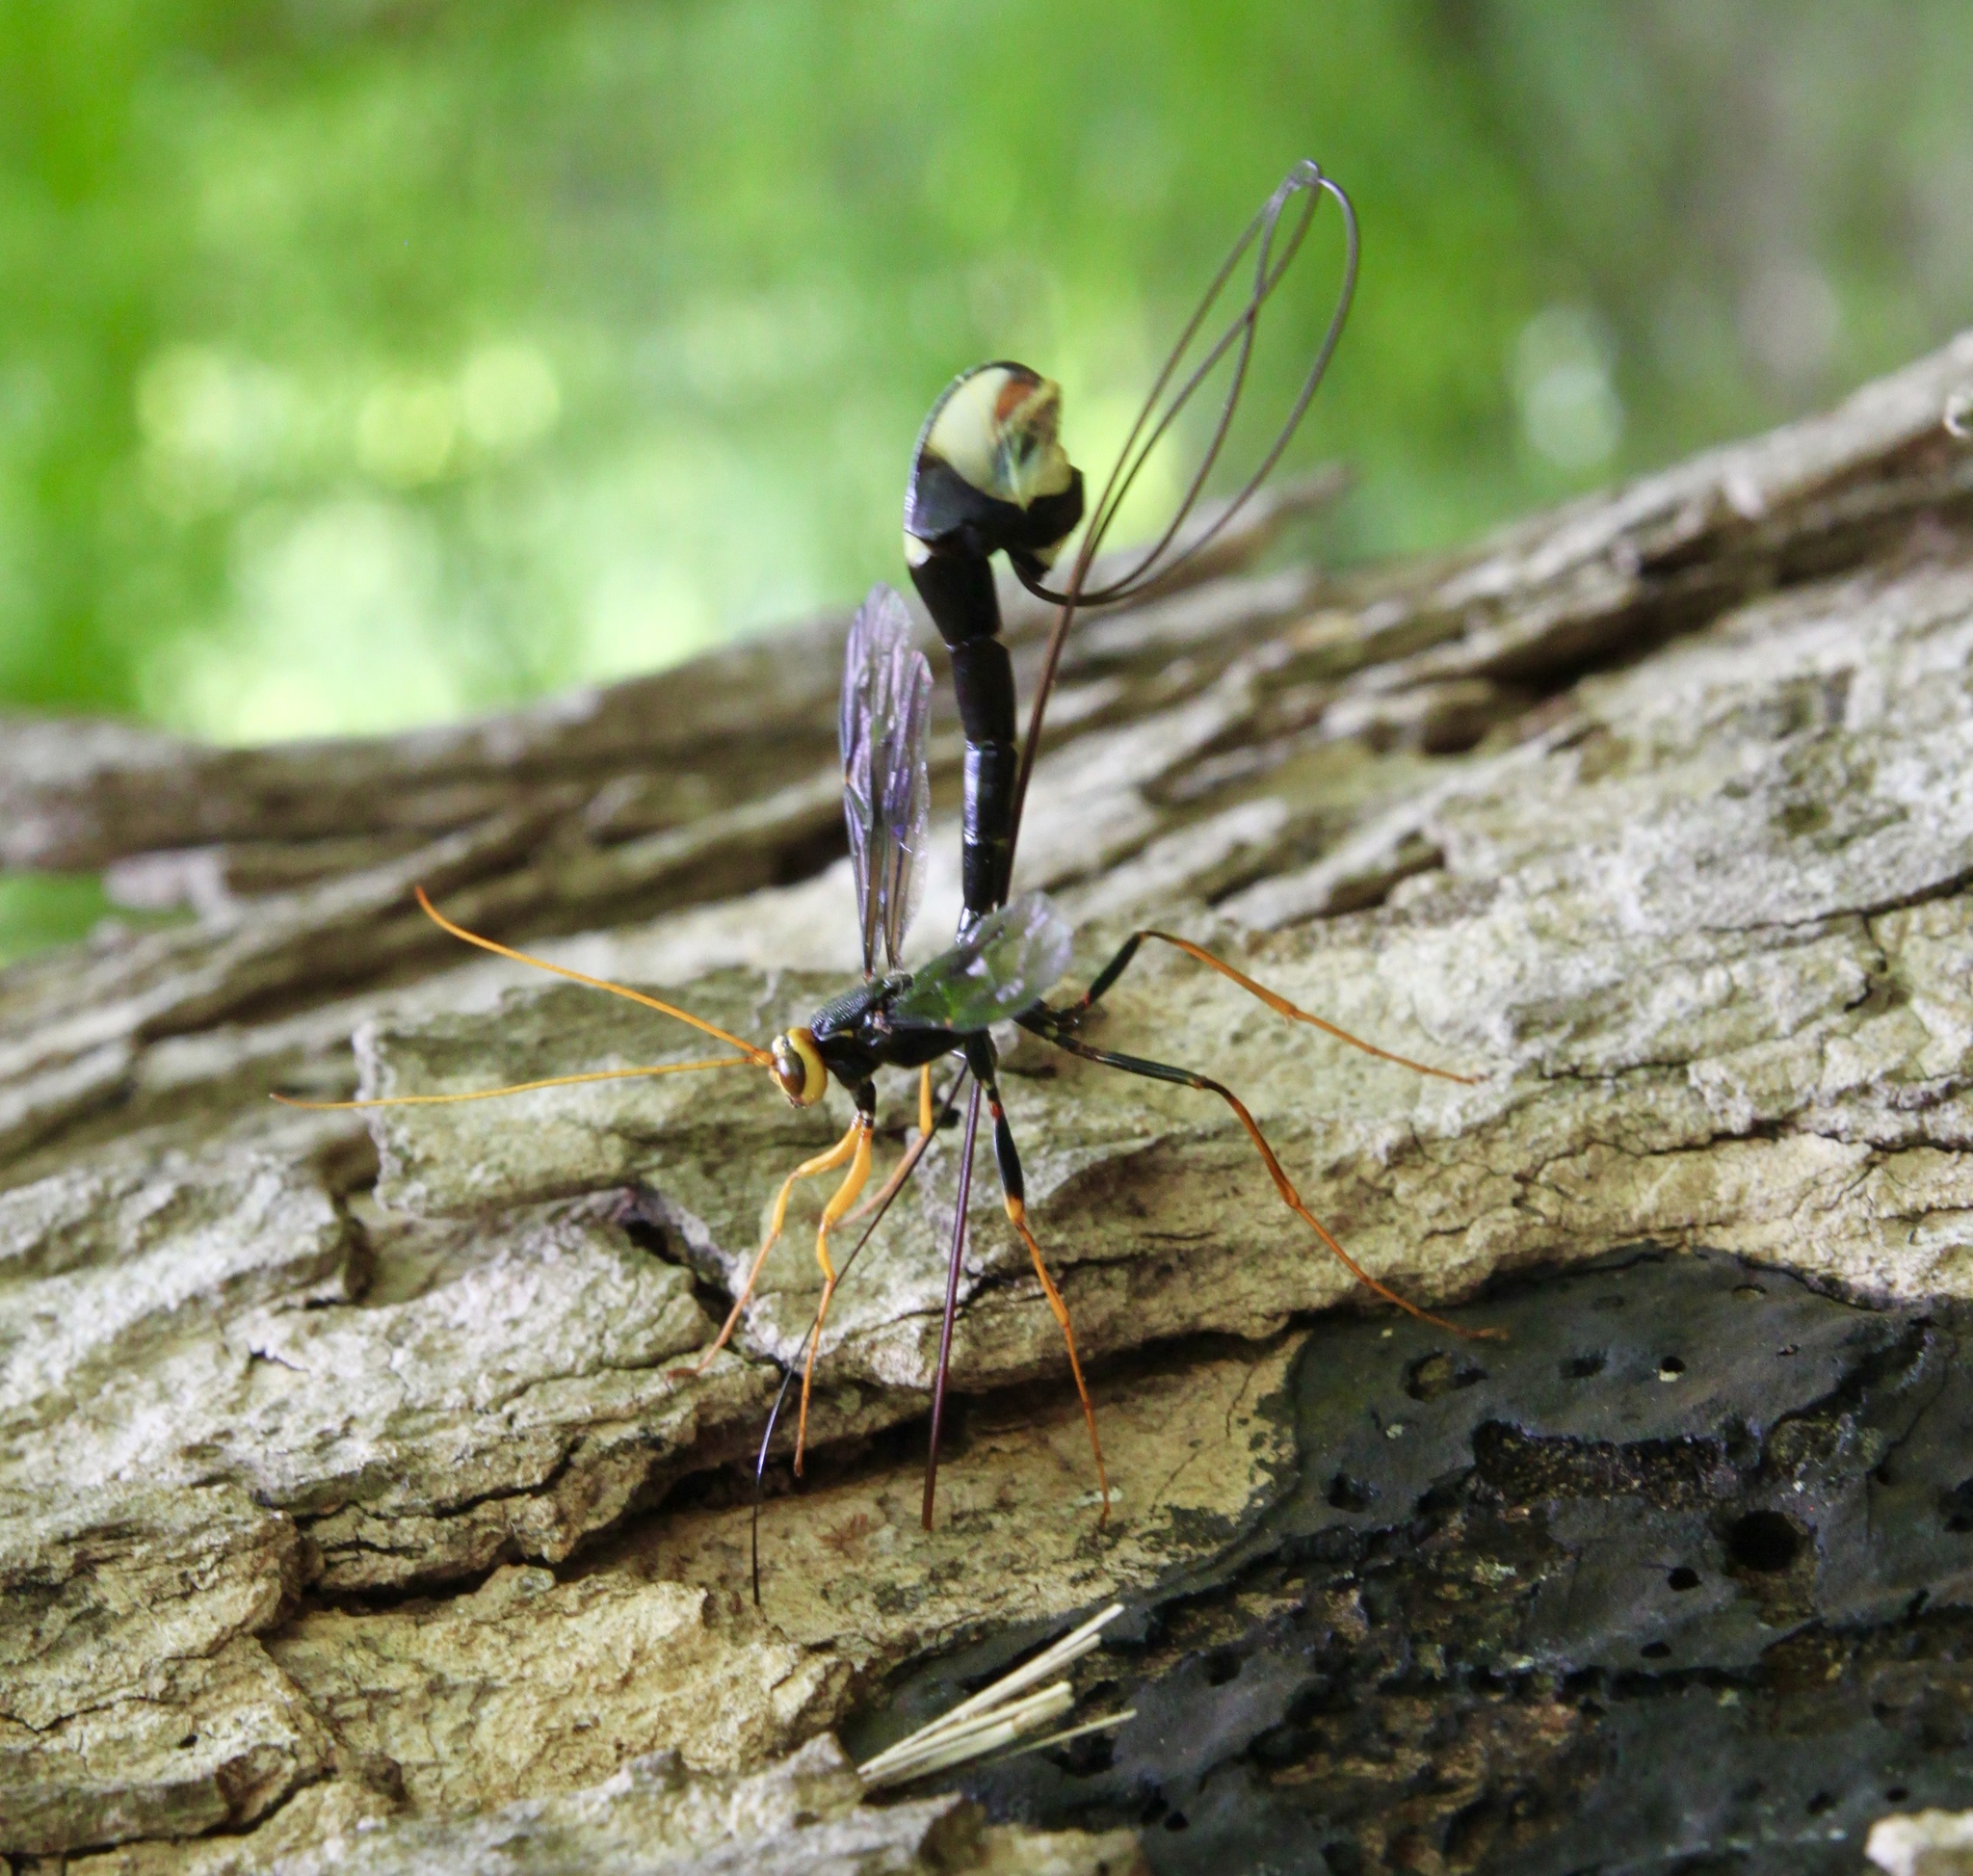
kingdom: Animalia
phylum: Arthropoda
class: Insecta
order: Hymenoptera
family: Ichneumonidae
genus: Megarhyssa
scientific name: Megarhyssa atrata
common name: Black giant ichneumonid wasp
